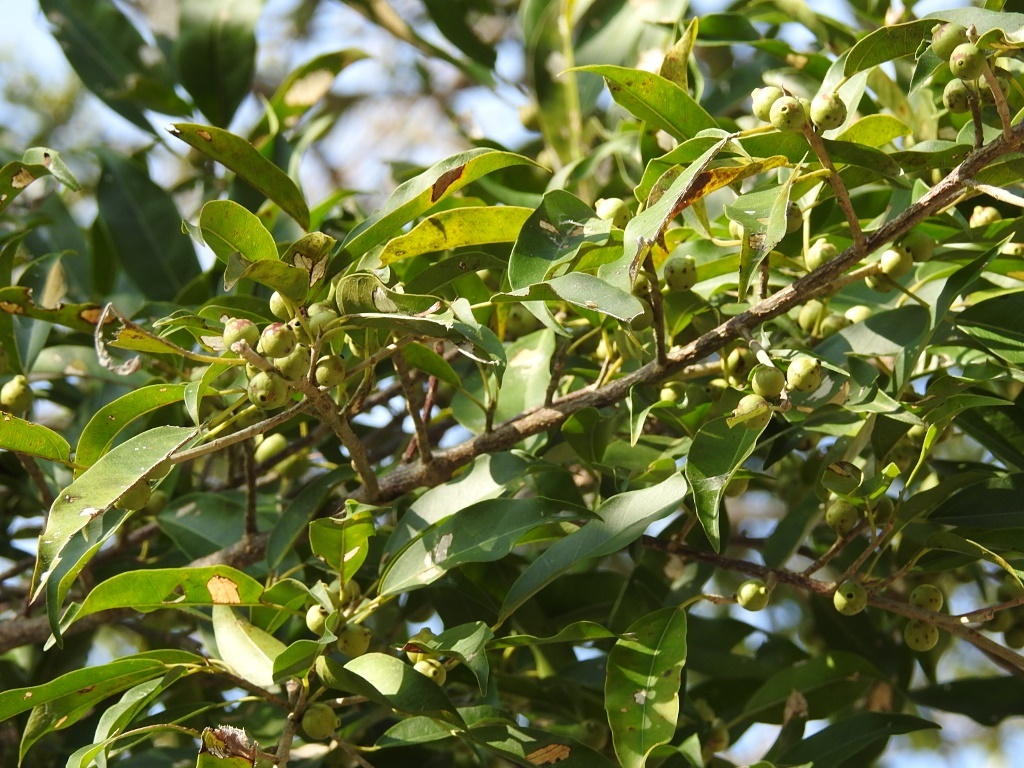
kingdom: Plantae
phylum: Tracheophyta
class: Magnoliopsida
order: Rosales
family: Moraceae
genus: Ficus
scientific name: Ficus pertusa
